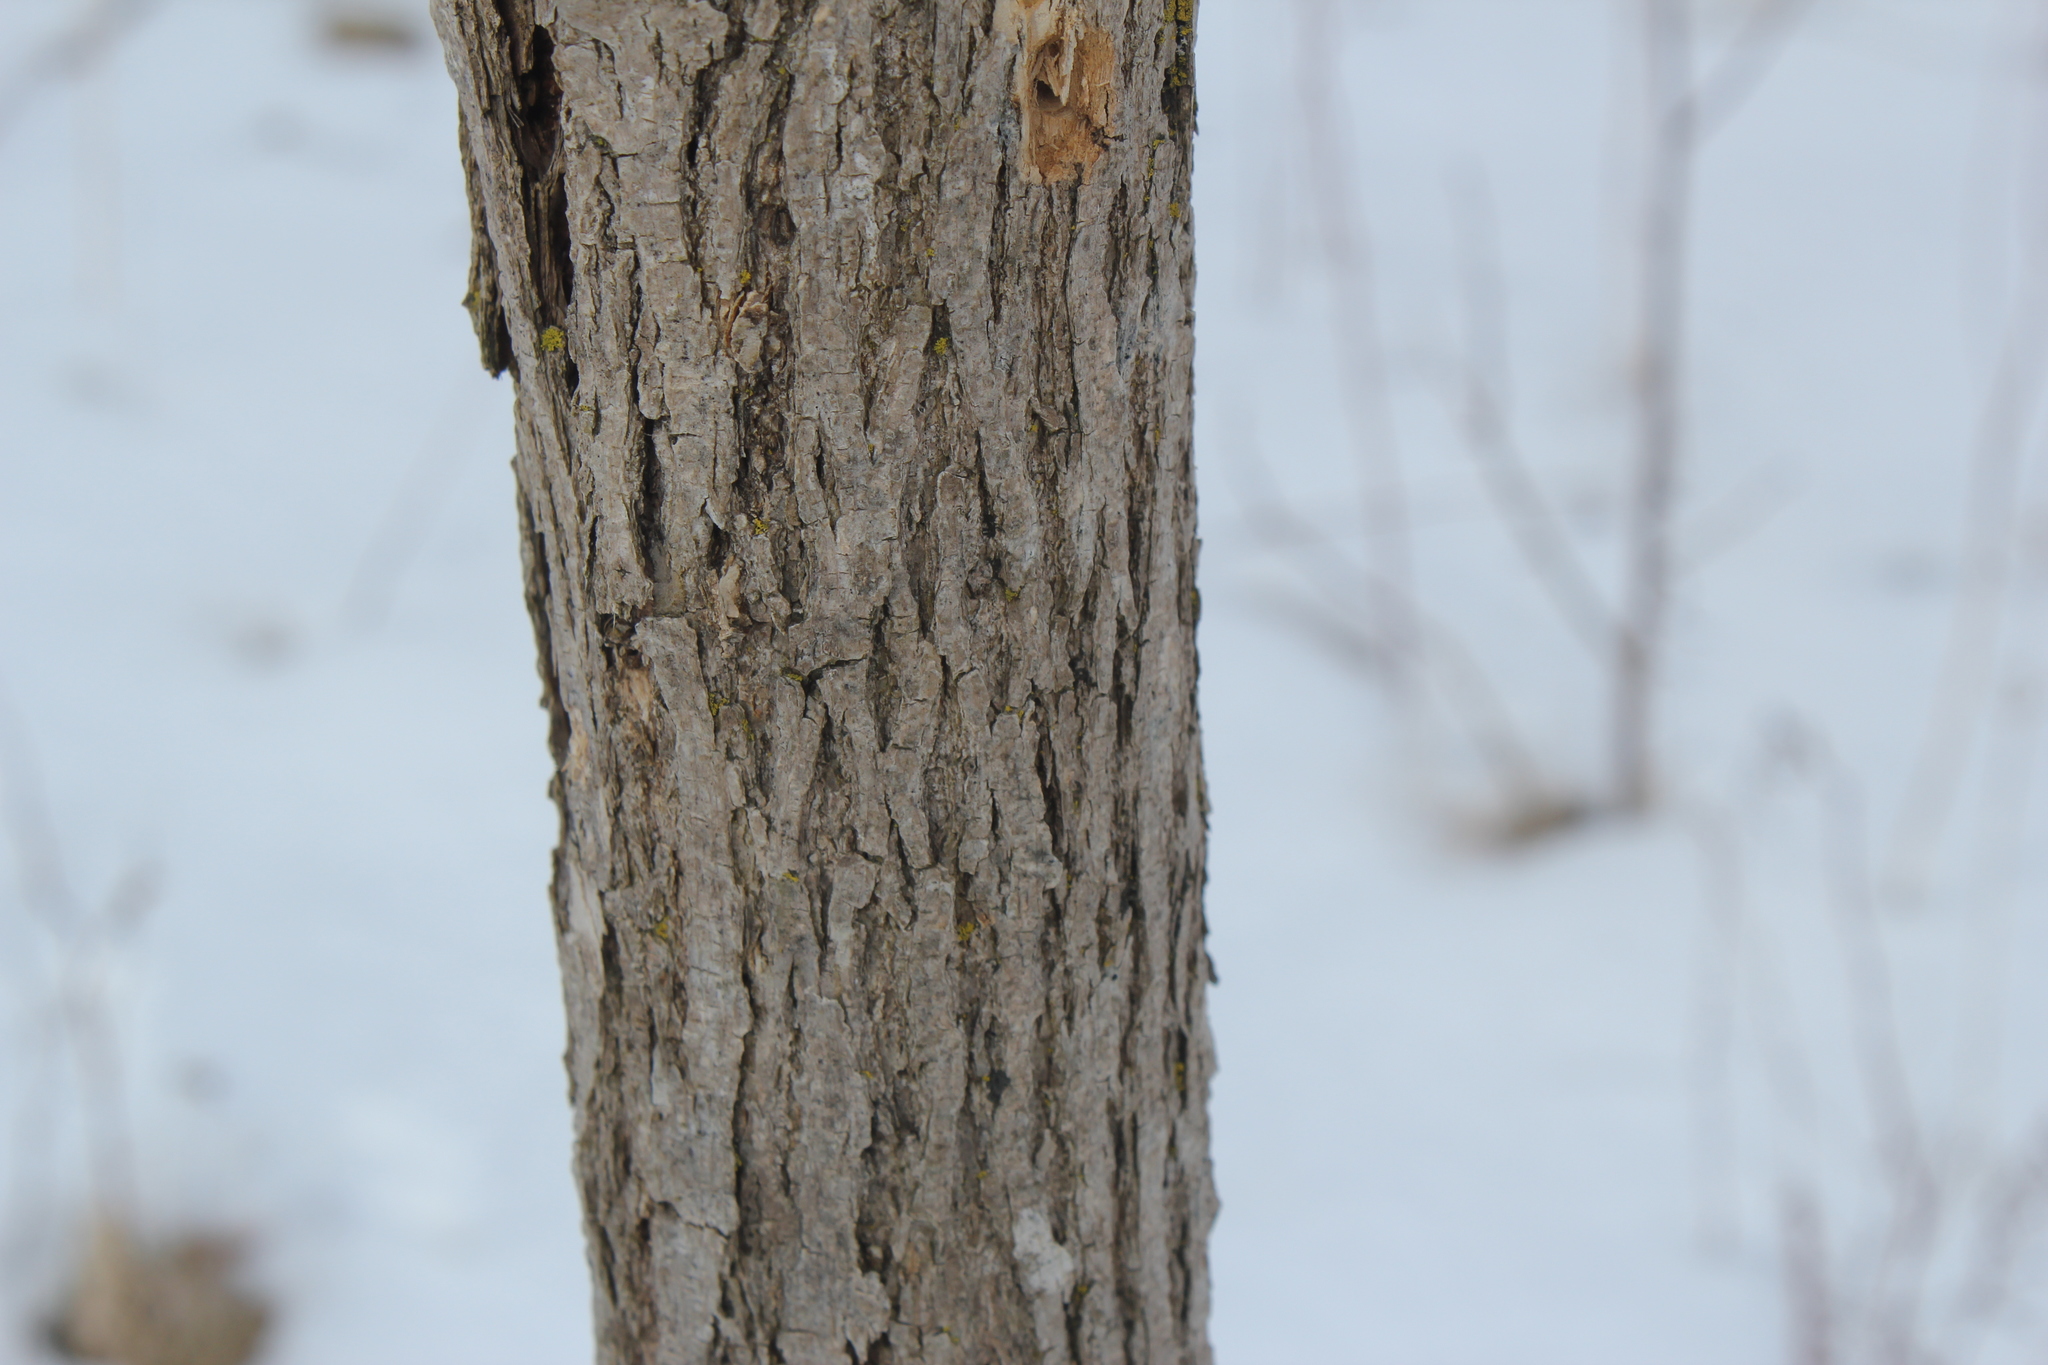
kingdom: Plantae
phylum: Tracheophyta
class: Magnoliopsida
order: Lamiales
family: Oleaceae
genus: Fraxinus
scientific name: Fraxinus pennsylvanica
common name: Green ash
